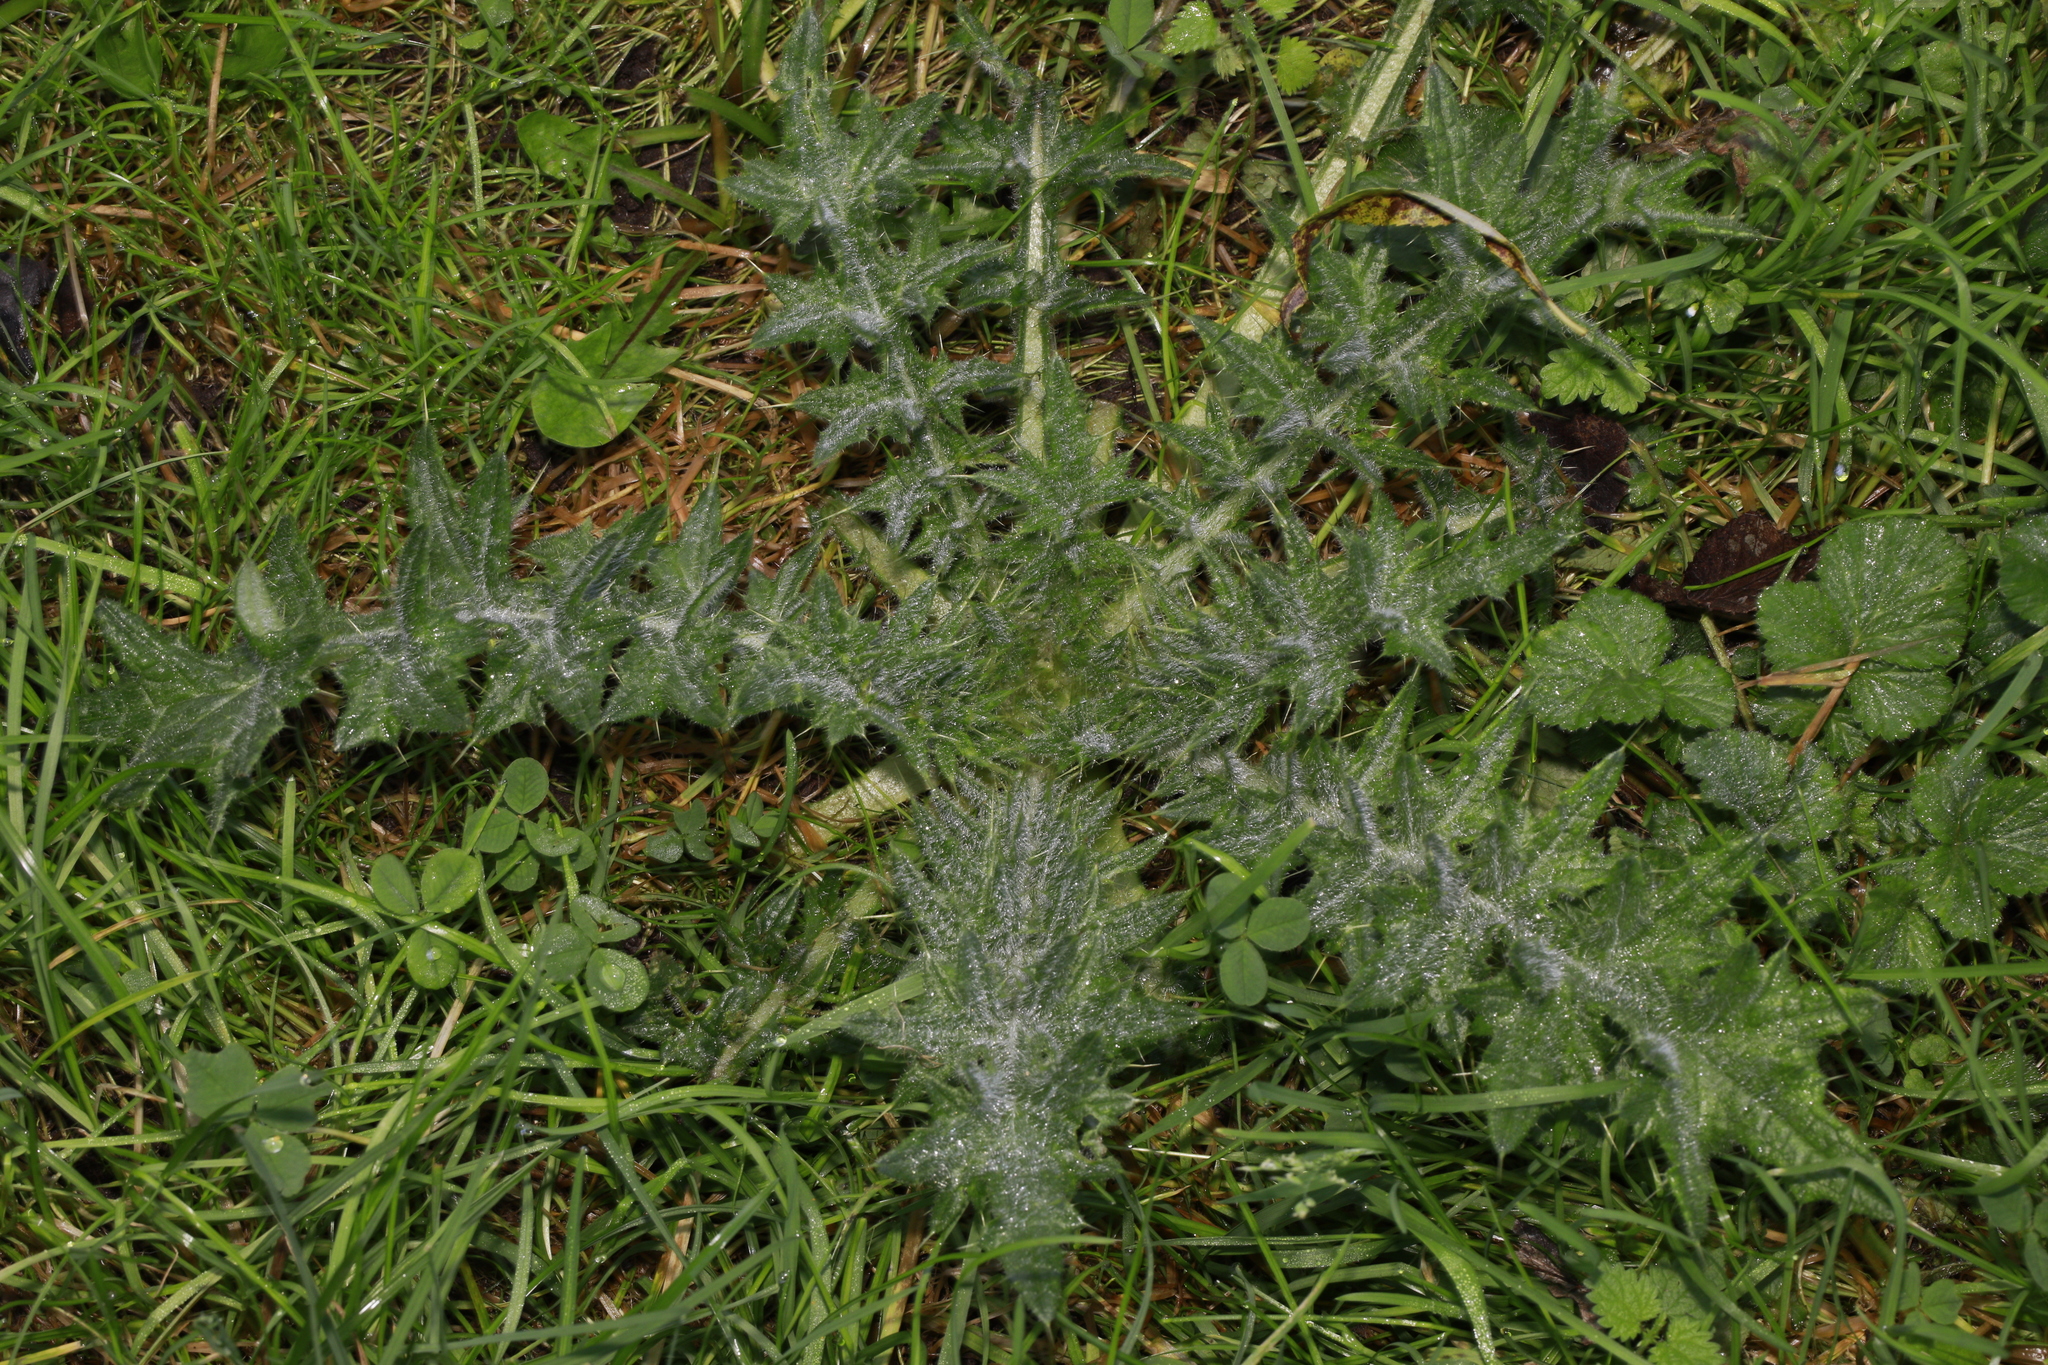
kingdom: Plantae
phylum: Tracheophyta
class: Magnoliopsida
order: Asterales
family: Asteraceae
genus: Cirsium
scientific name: Cirsium vulgare
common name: Bull thistle
